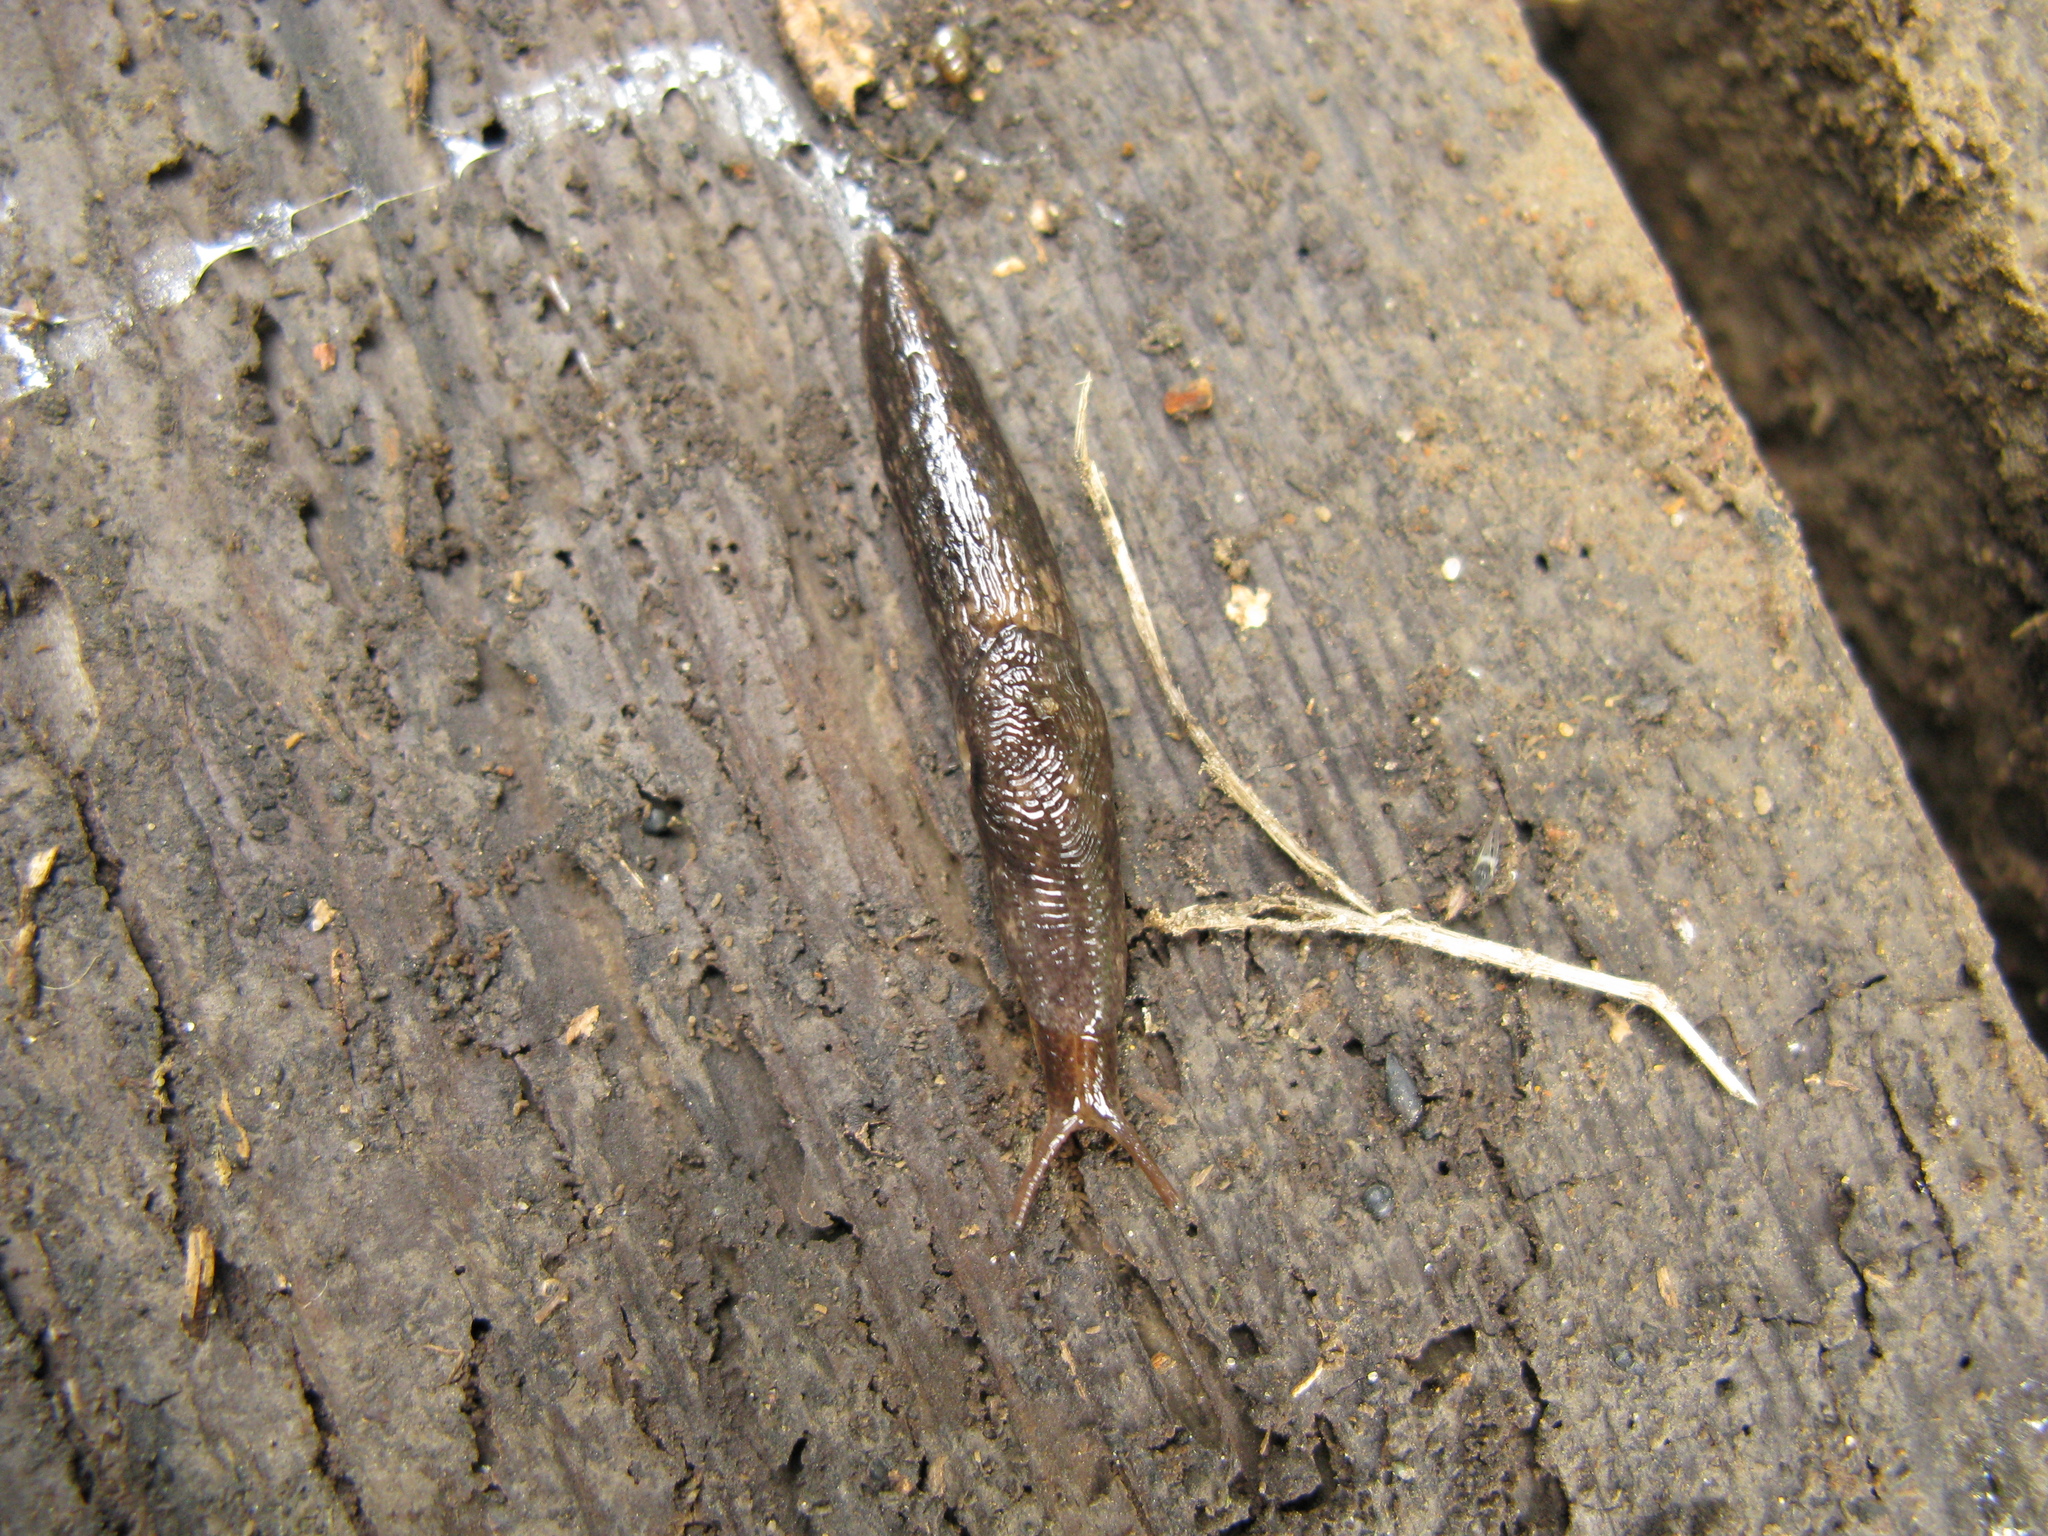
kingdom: Animalia
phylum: Mollusca
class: Gastropoda
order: Stylommatophora
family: Agriolimacidae
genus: Deroceras
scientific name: Deroceras reticulatum
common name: Gray field slug
